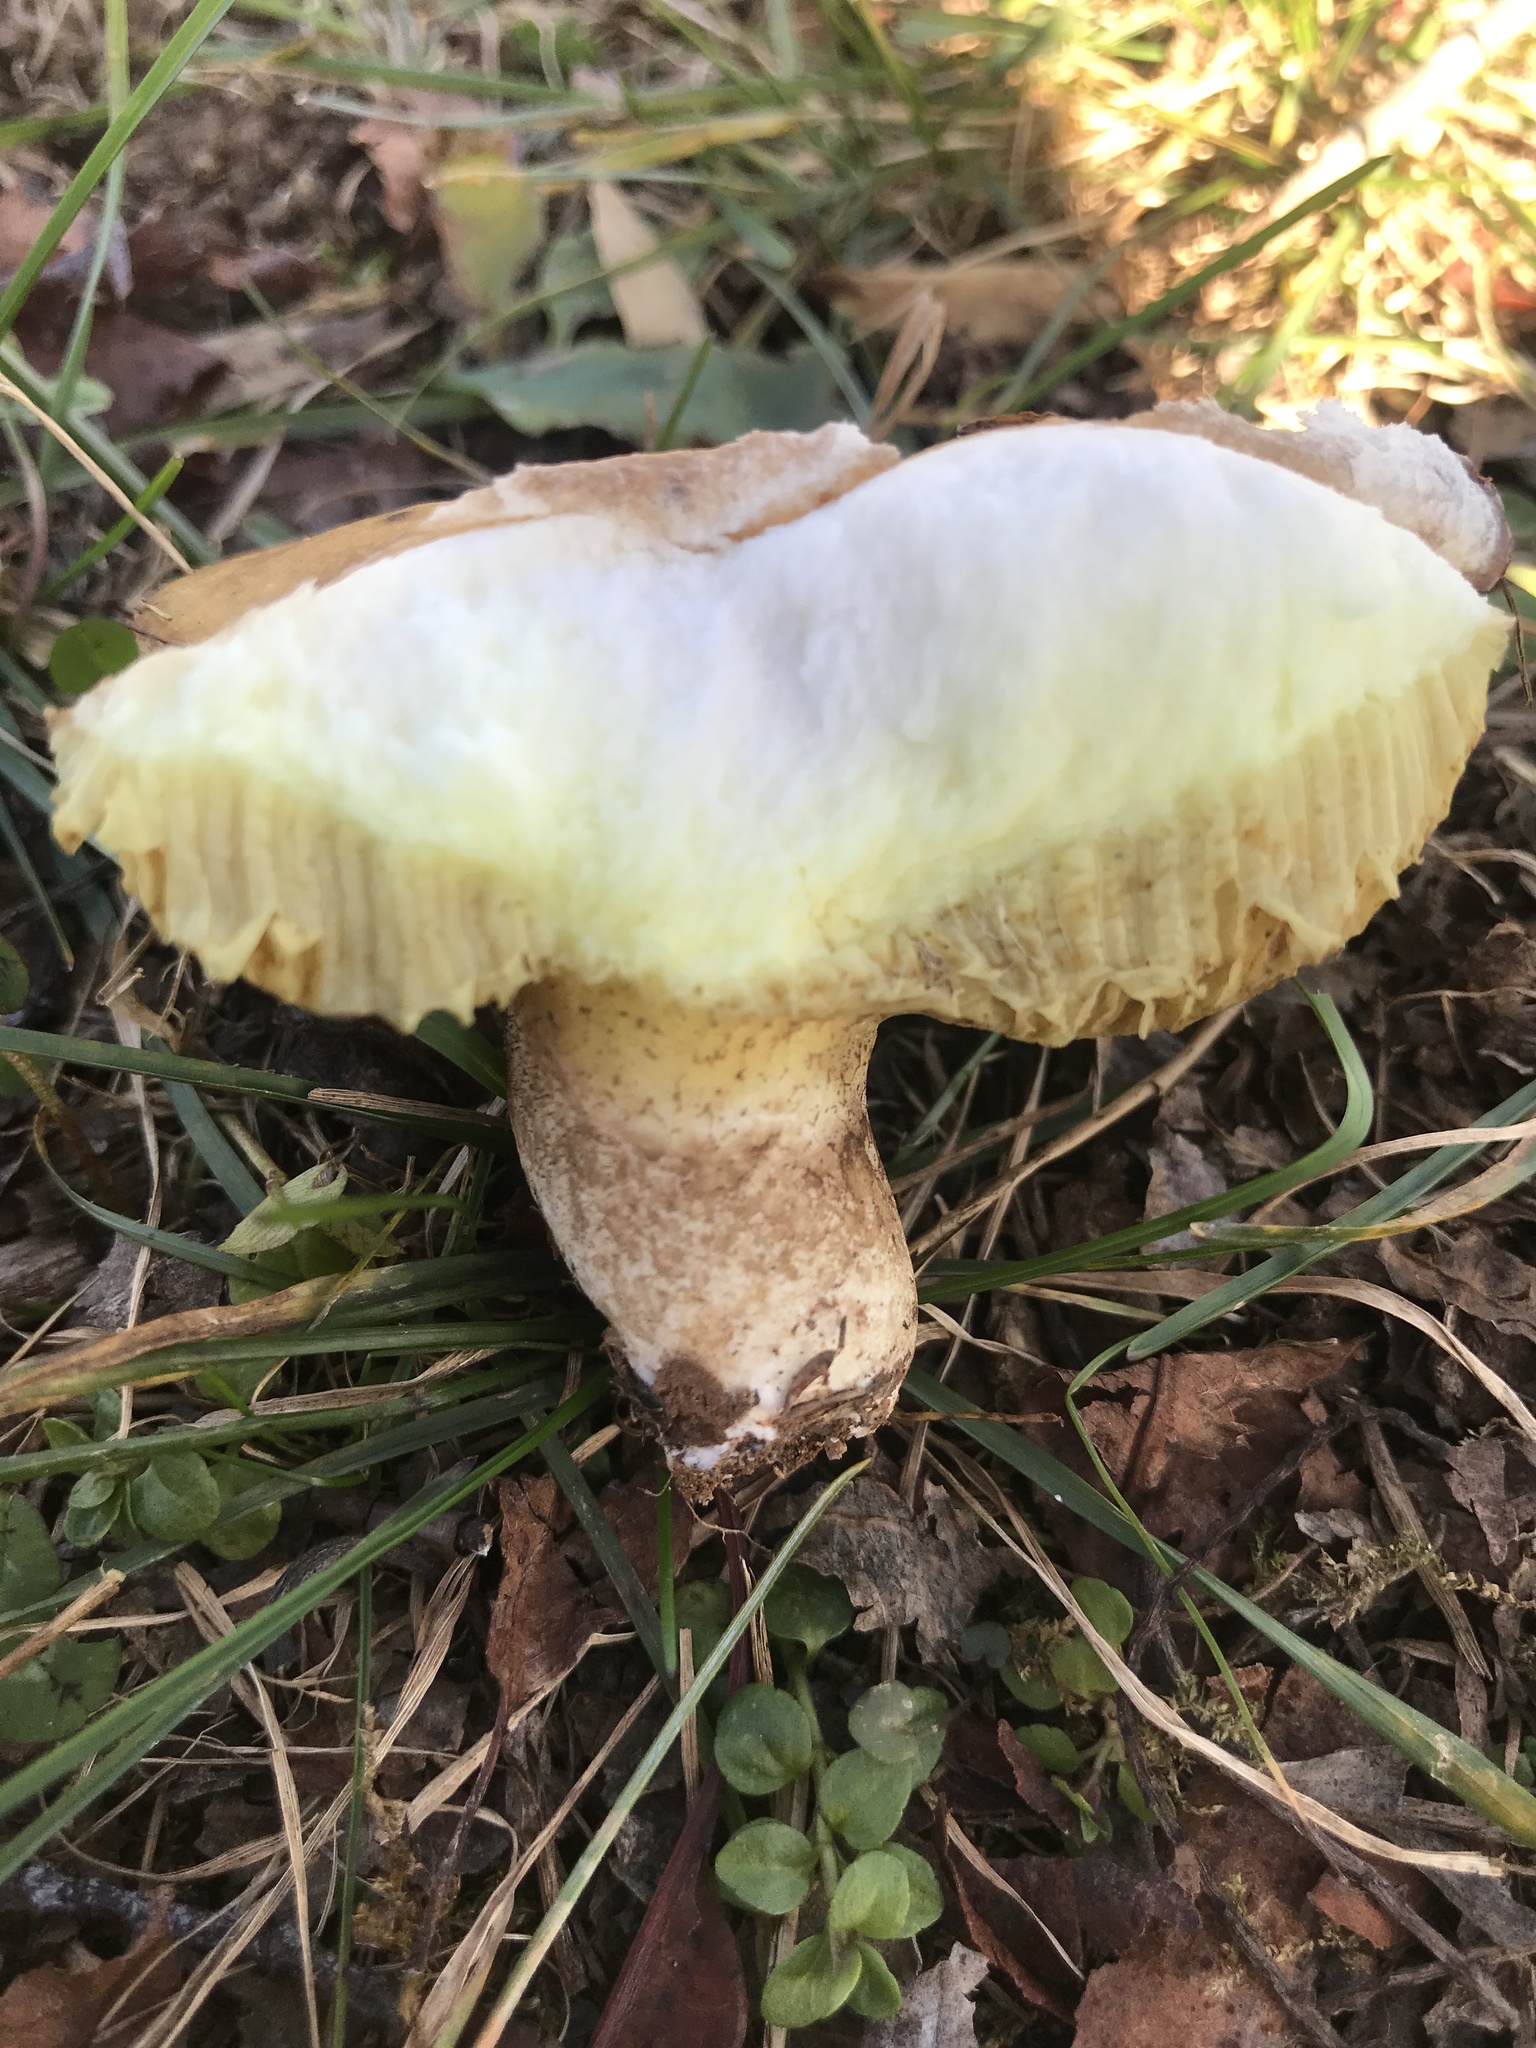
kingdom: Fungi
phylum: Basidiomycota
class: Agaricomycetes
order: Boletales
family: Suillaceae
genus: Fuscoboletinus
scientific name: Fuscoboletinus weaverae
